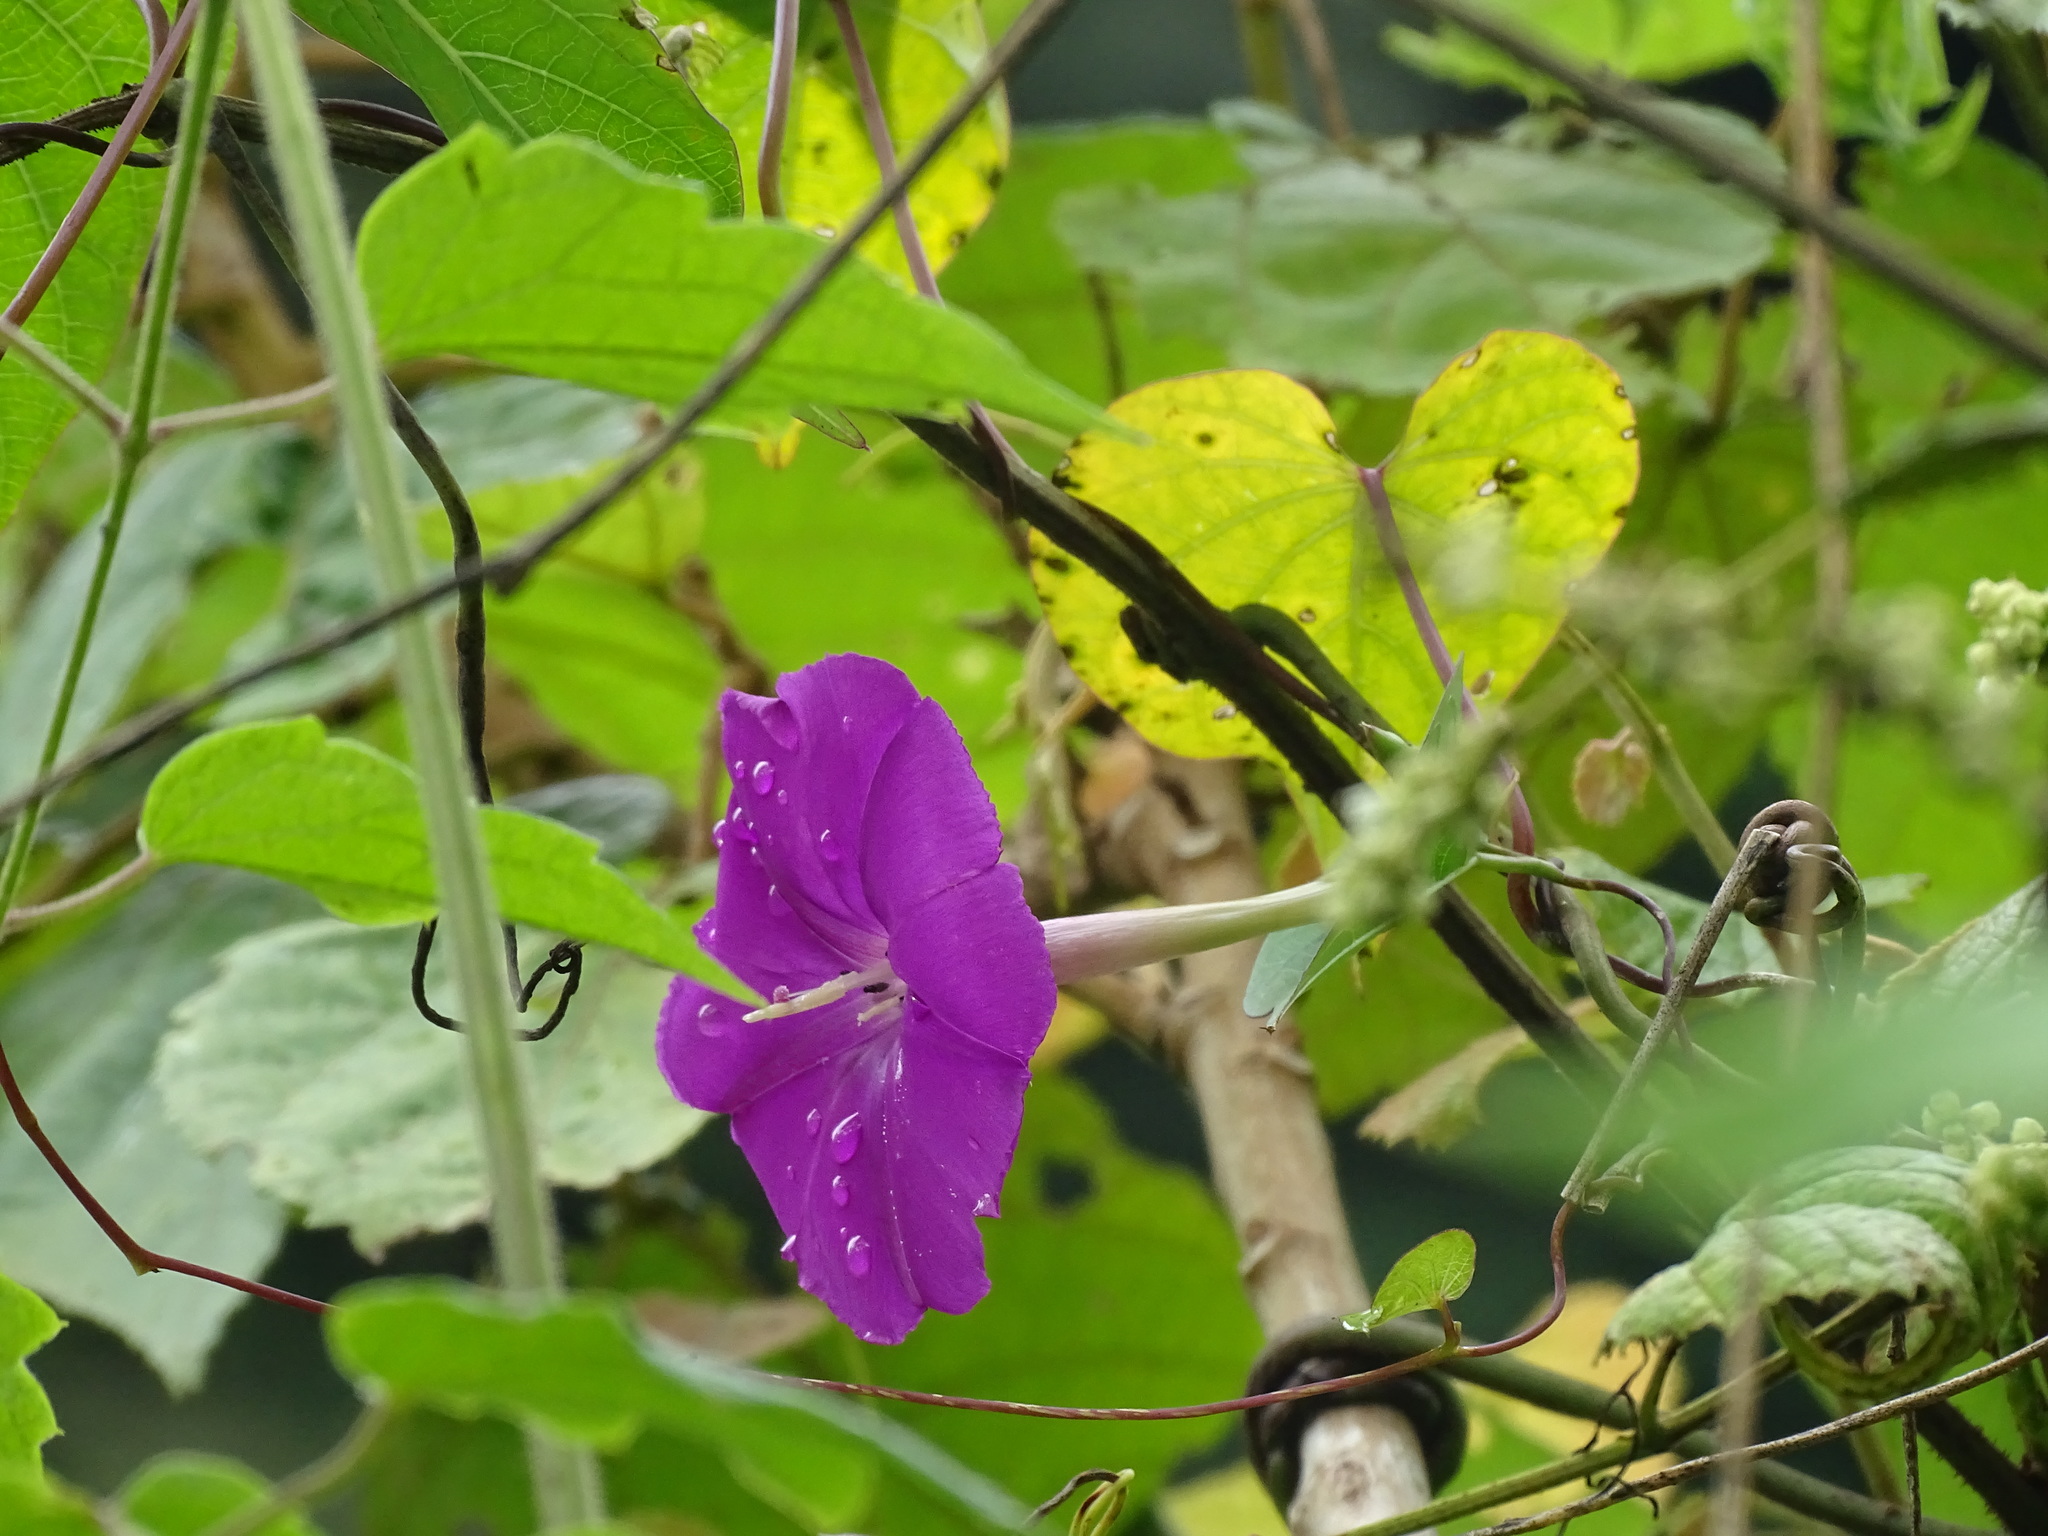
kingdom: Plantae
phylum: Tracheophyta
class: Magnoliopsida
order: Solanales
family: Convolvulaceae
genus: Ipomoea
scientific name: Ipomoea dumosa
